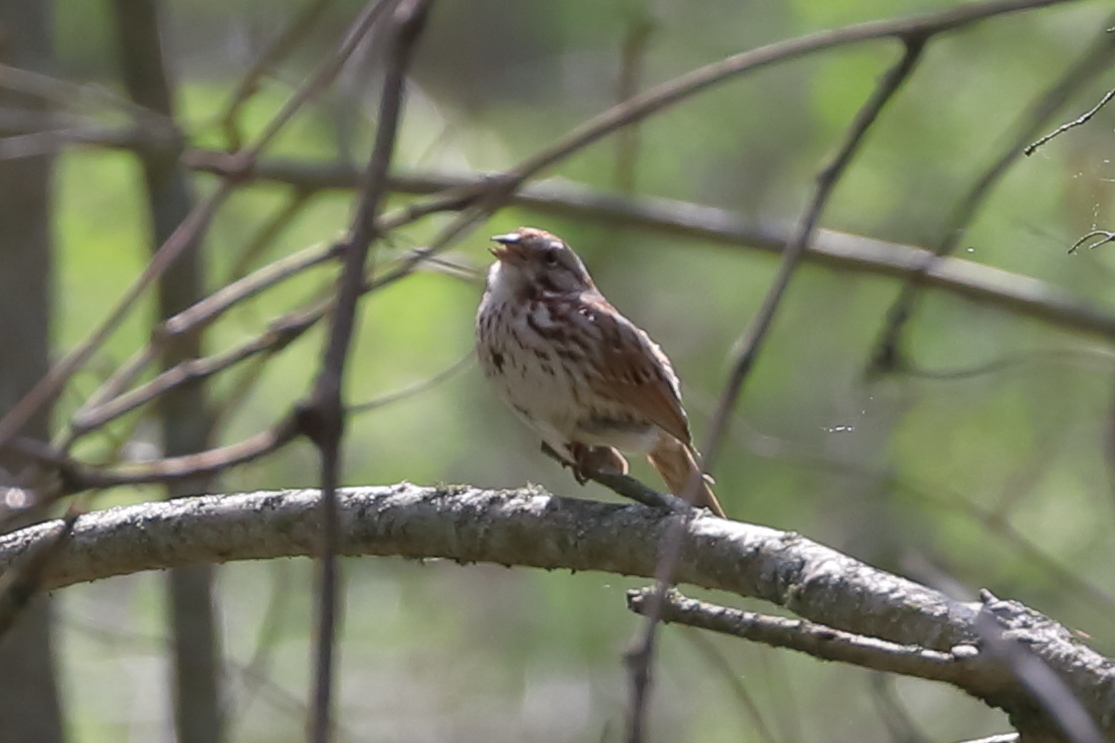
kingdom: Animalia
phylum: Chordata
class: Aves
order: Passeriformes
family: Passerellidae
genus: Melospiza
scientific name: Melospiza melodia
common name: Song sparrow
